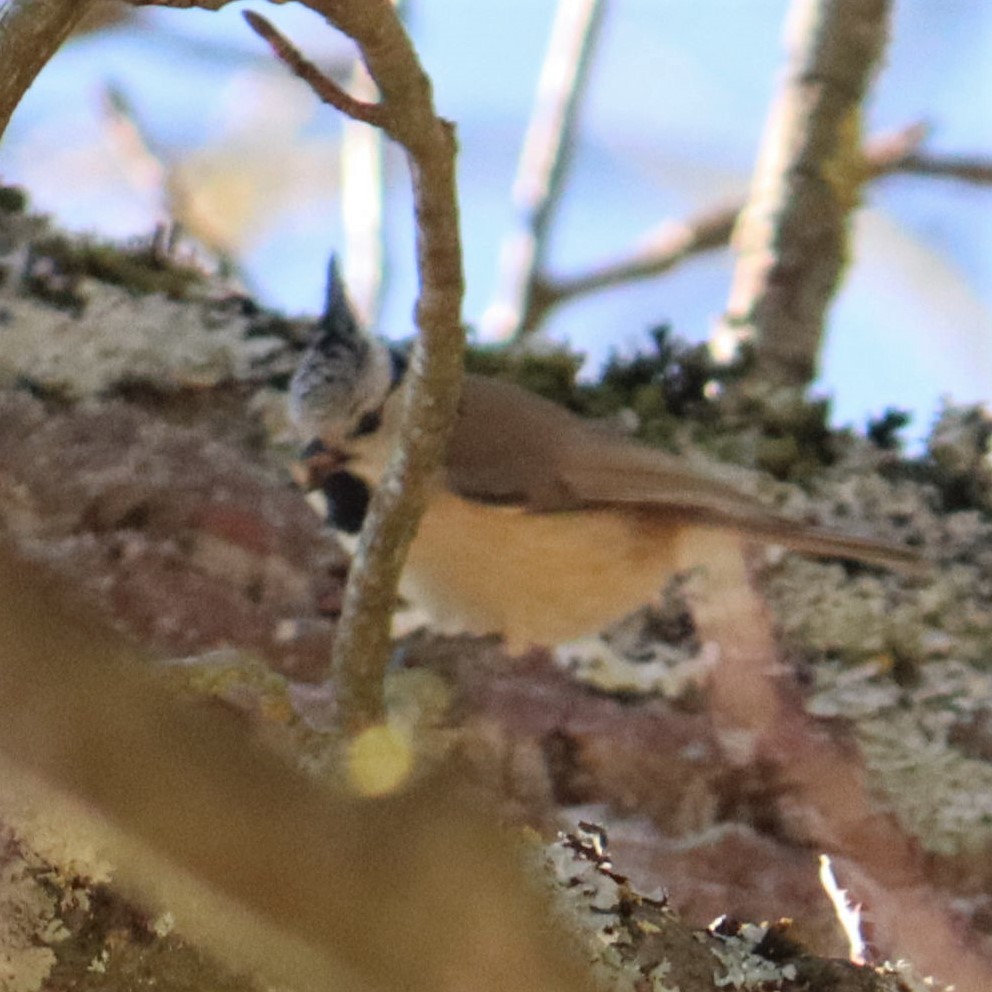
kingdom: Animalia
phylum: Chordata
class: Aves
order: Passeriformes
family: Paridae
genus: Lophophanes
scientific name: Lophophanes cristatus
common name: European crested tit
